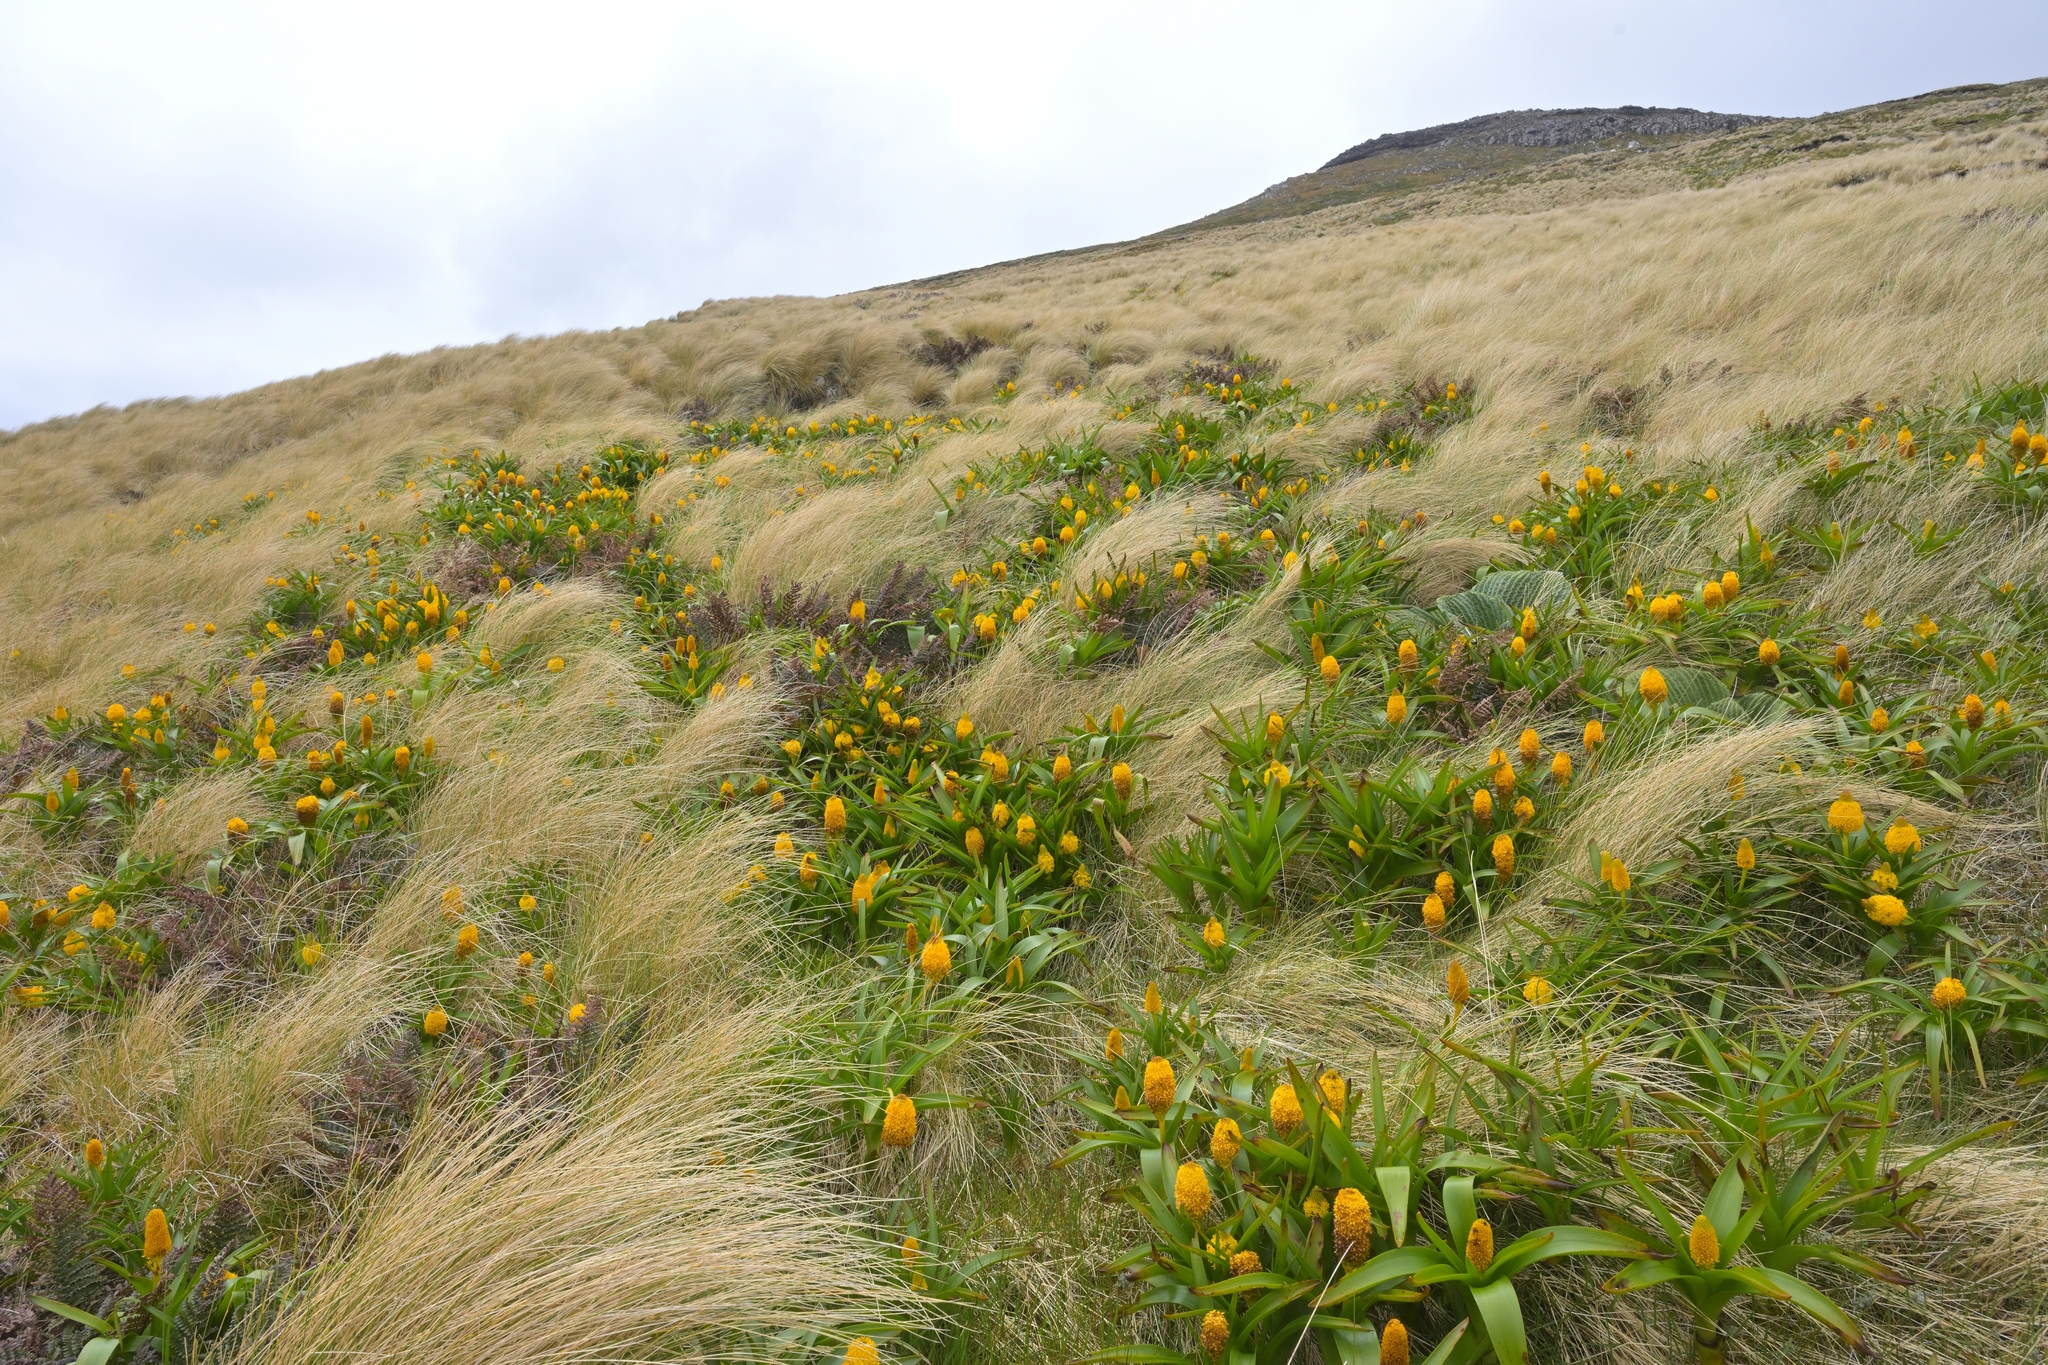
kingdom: Plantae
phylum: Tracheophyta
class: Liliopsida
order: Asparagales
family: Asphodelaceae
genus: Bulbinella
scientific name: Bulbinella rossii
